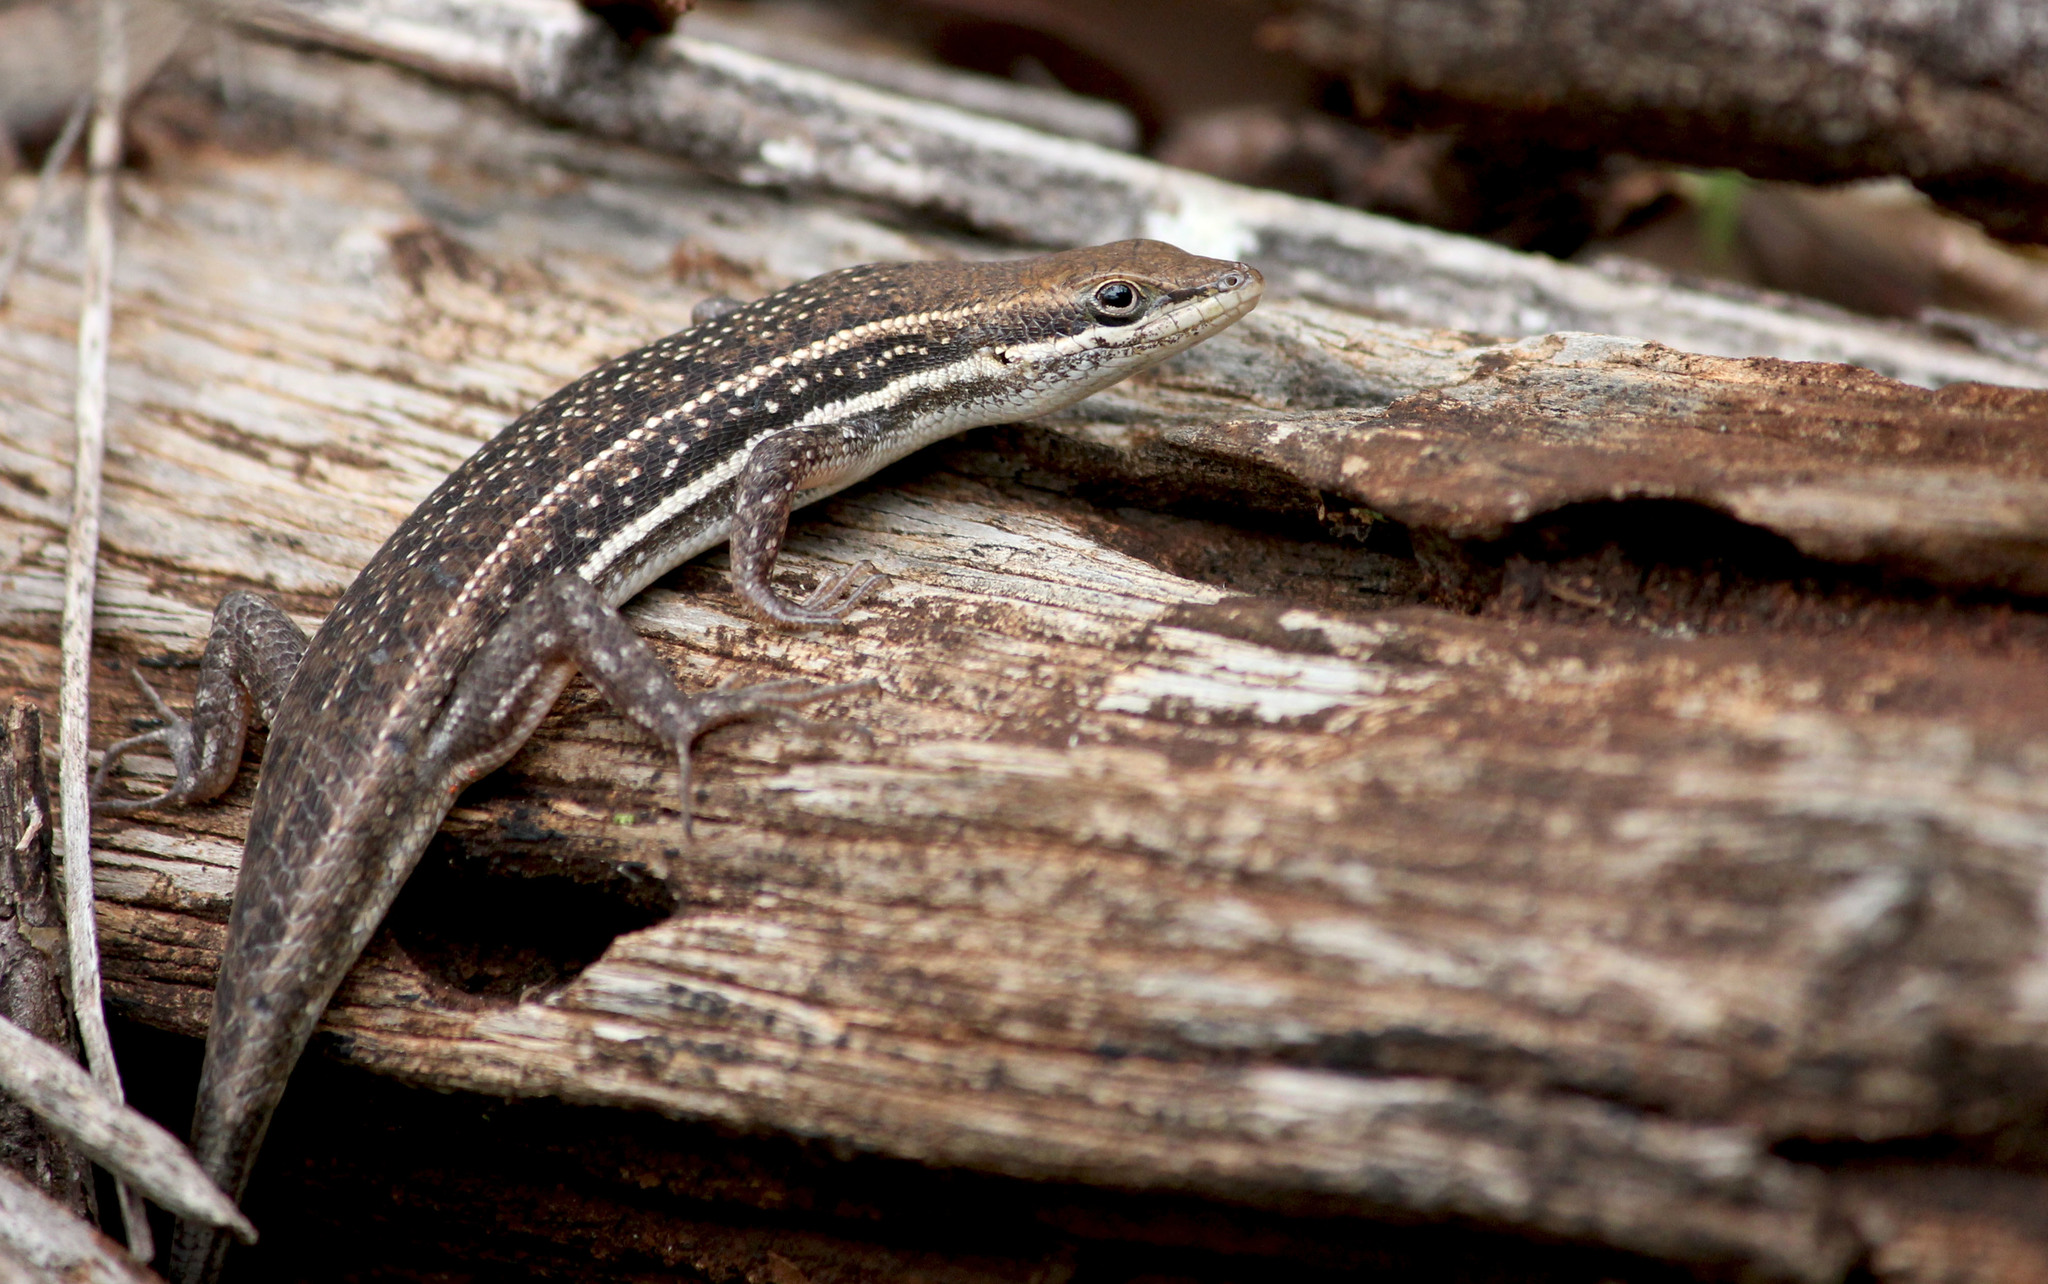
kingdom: Animalia
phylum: Chordata
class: Squamata
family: Scincidae
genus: Trachylepis
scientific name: Trachylepis damarana
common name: Damara skink
